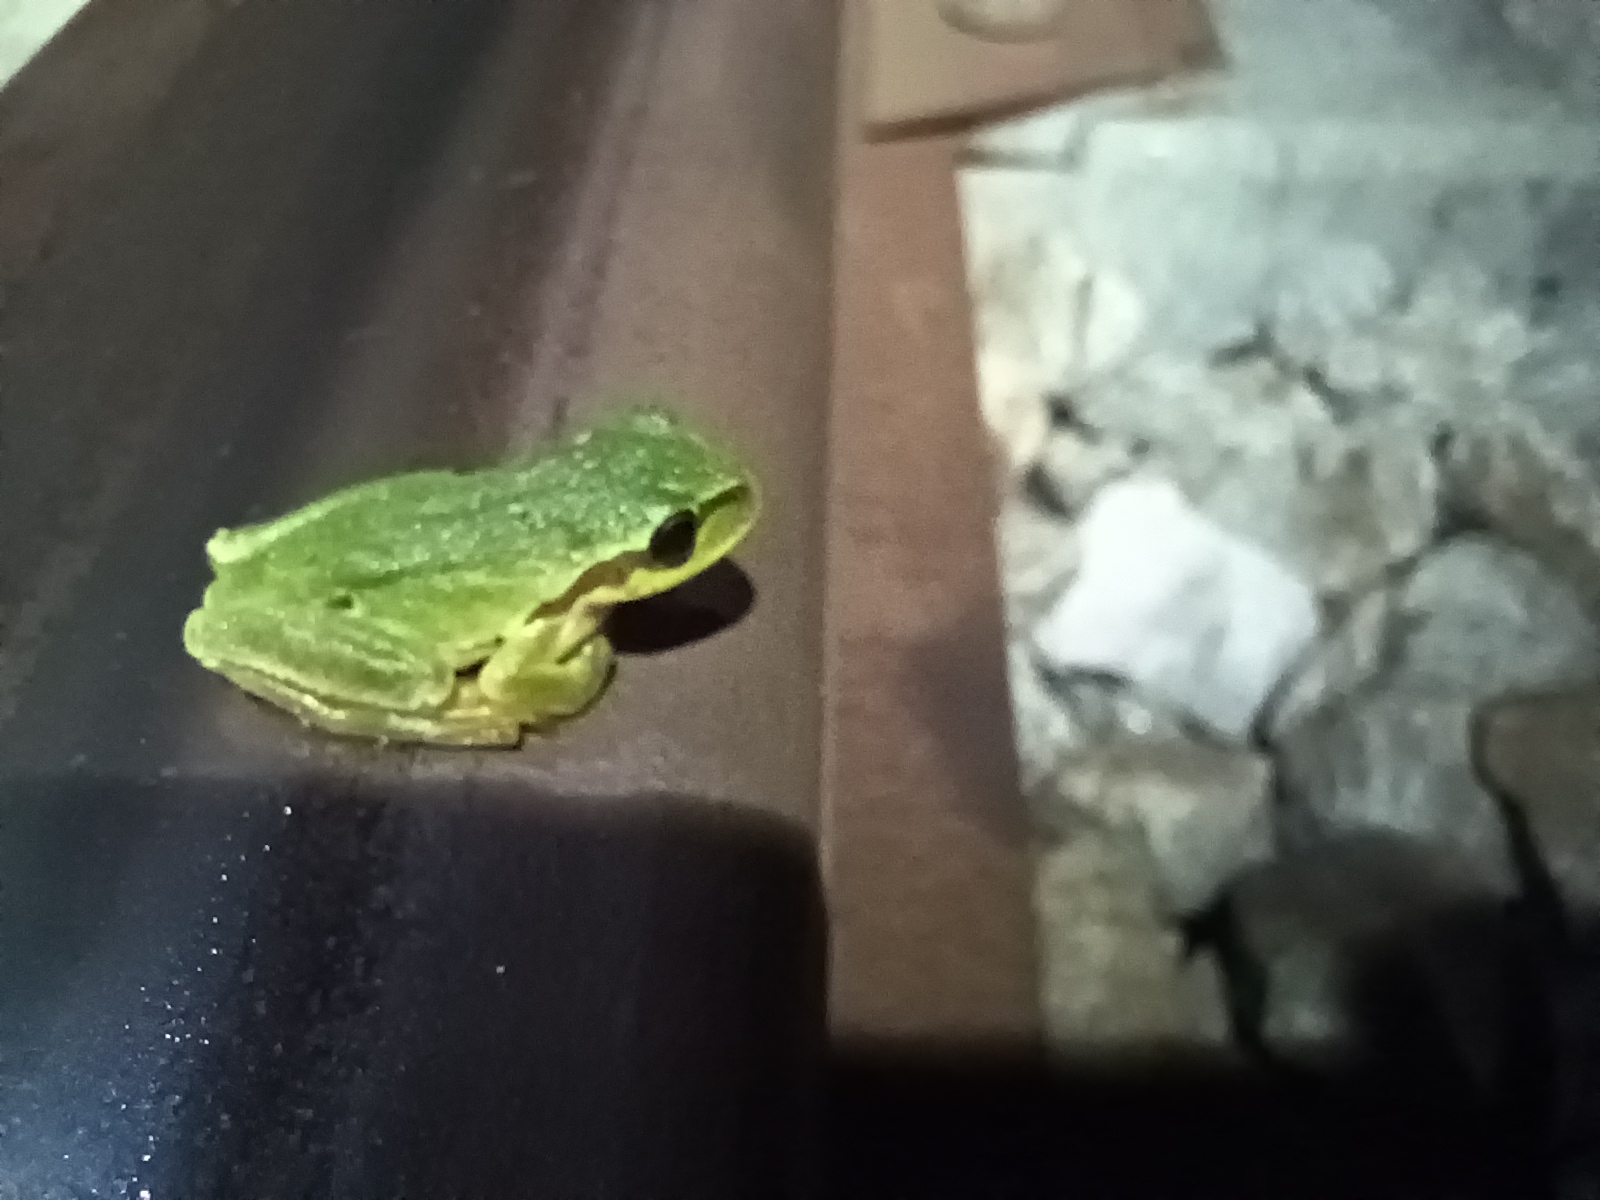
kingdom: Animalia
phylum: Chordata
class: Amphibia
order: Anura
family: Hylidae
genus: Hyla
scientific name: Hyla meridionalis
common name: Stripeless tree frog
